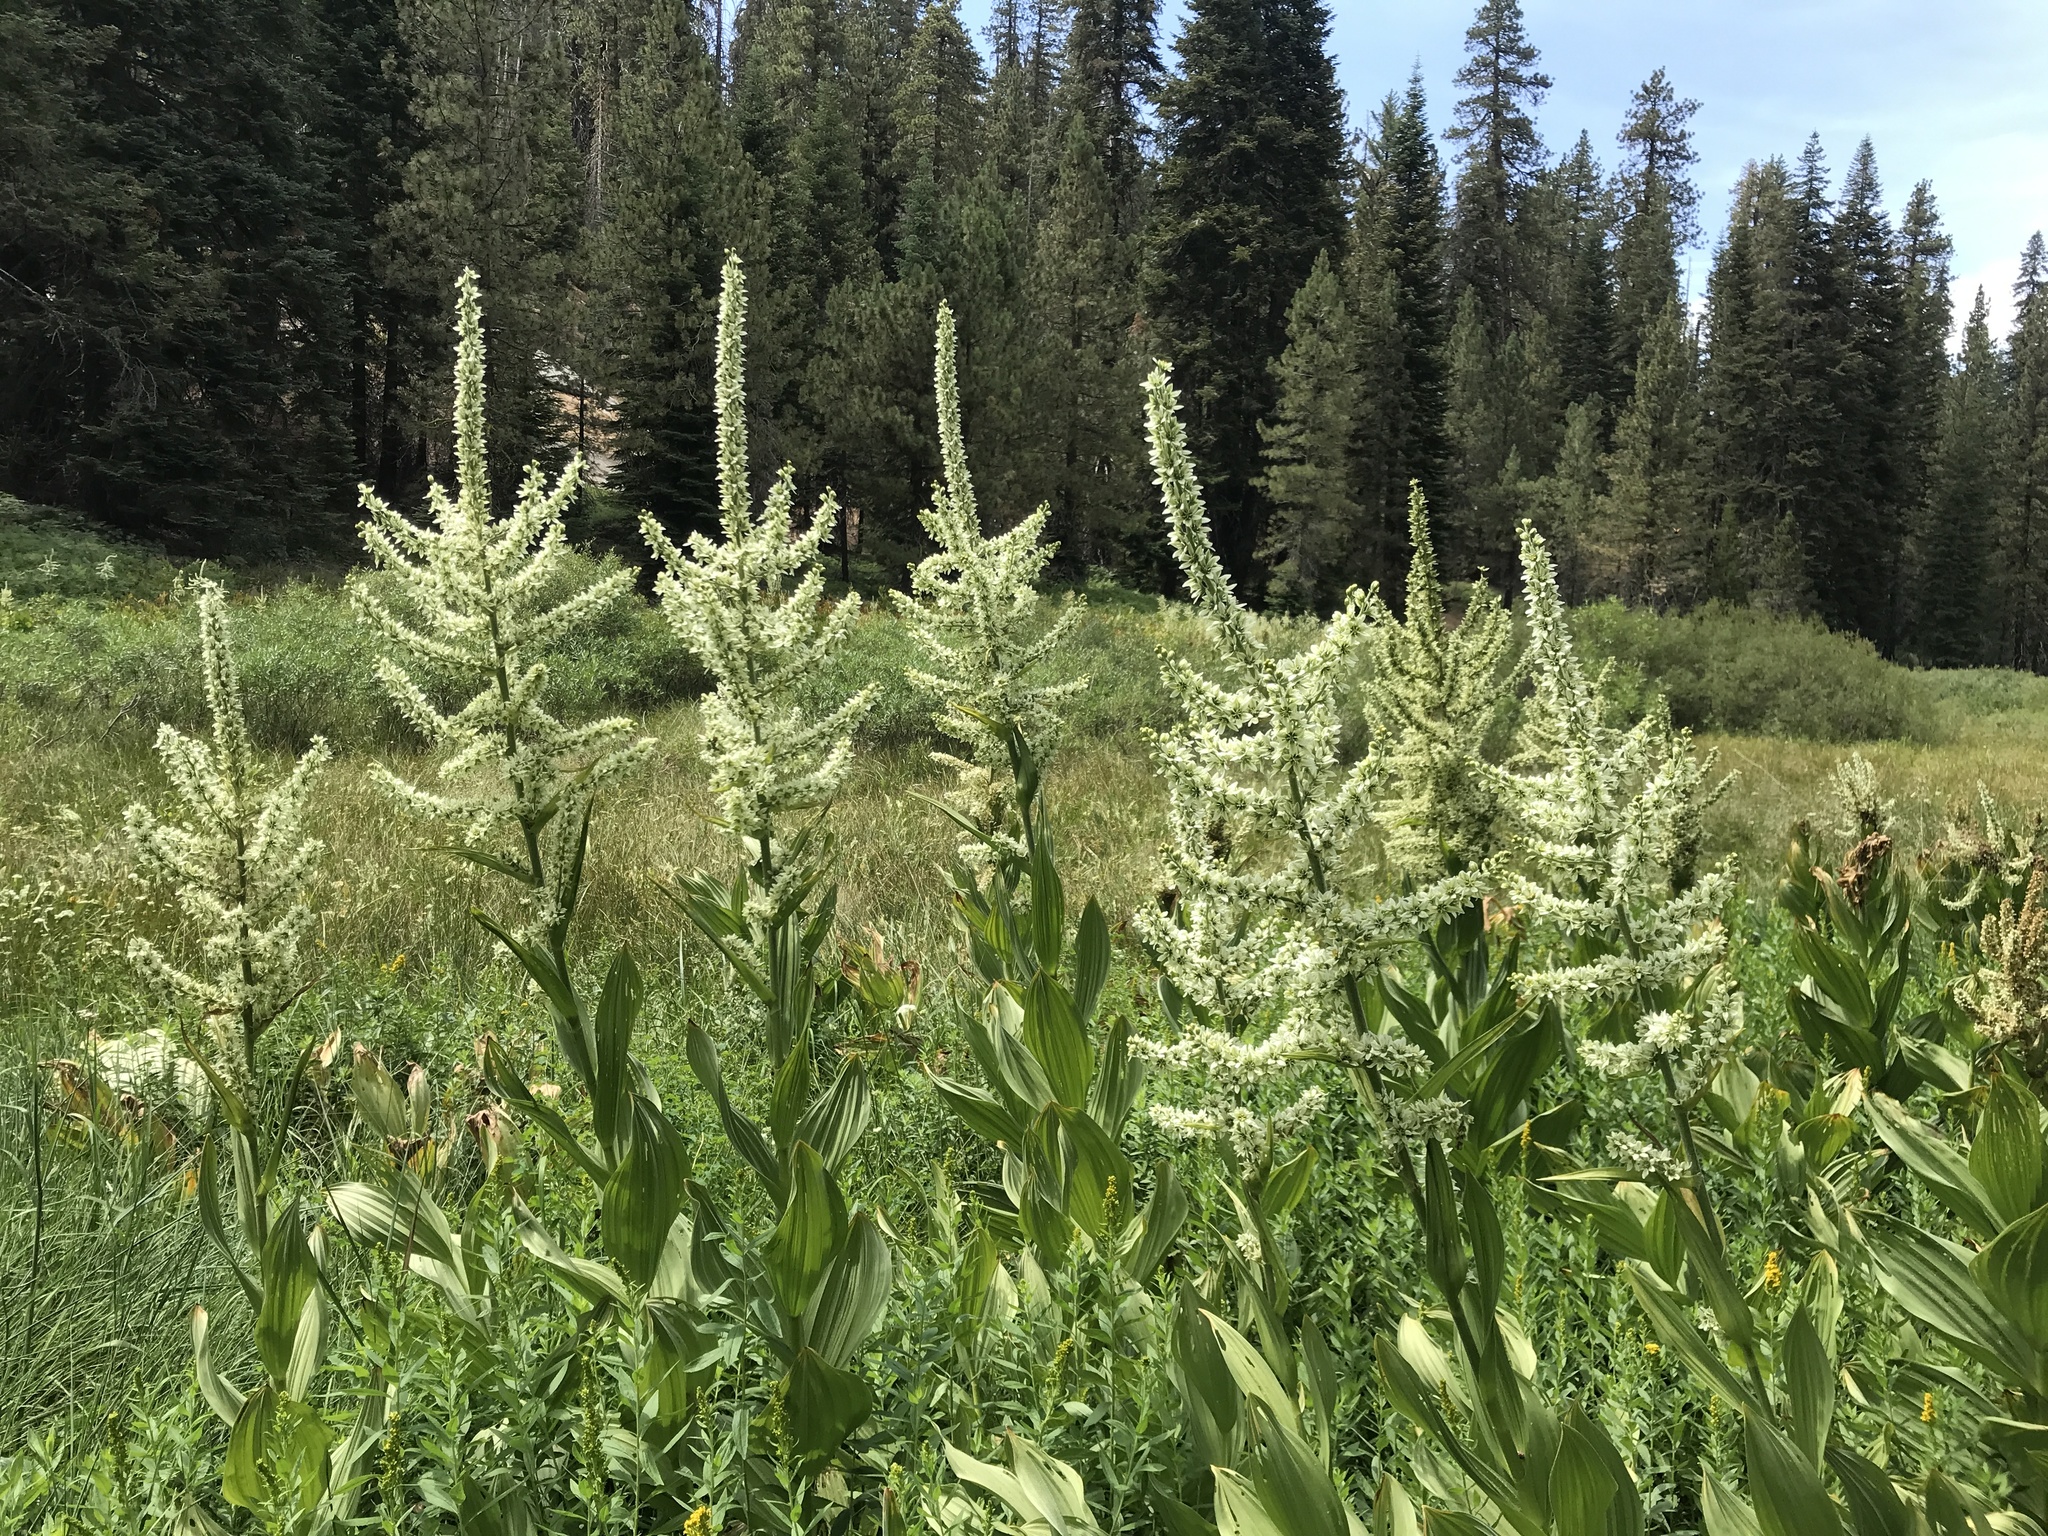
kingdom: Plantae
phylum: Tracheophyta
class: Liliopsida
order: Liliales
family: Melanthiaceae
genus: Veratrum
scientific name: Veratrum californicum
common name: California veratrum
